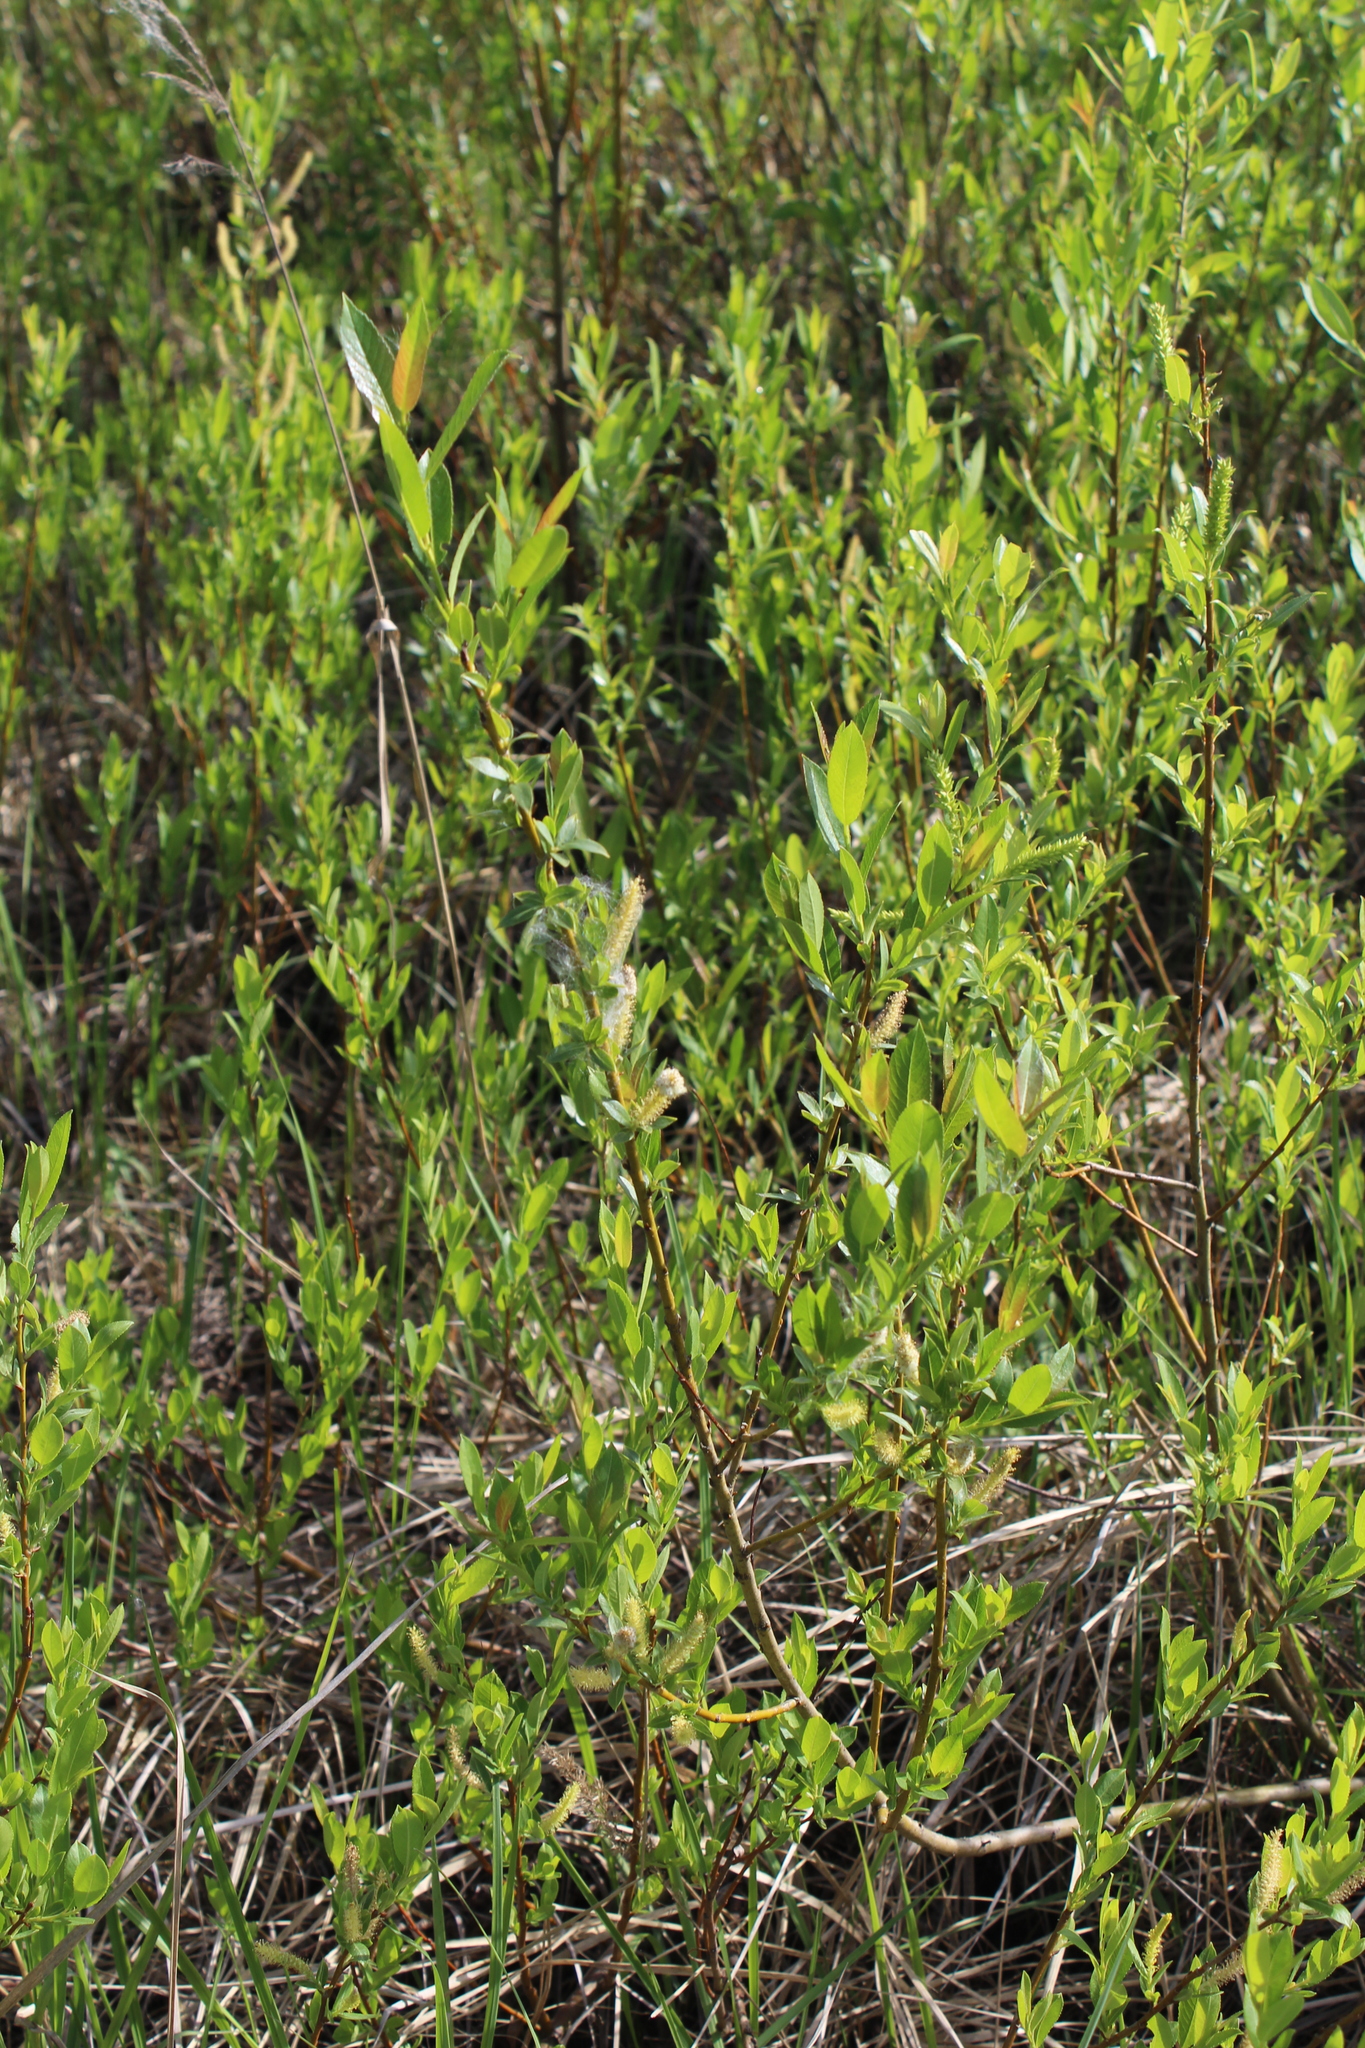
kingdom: Plantae
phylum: Tracheophyta
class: Magnoliopsida
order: Malpighiales
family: Salicaceae
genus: Salix
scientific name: Salix triandra
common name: Almond willow
